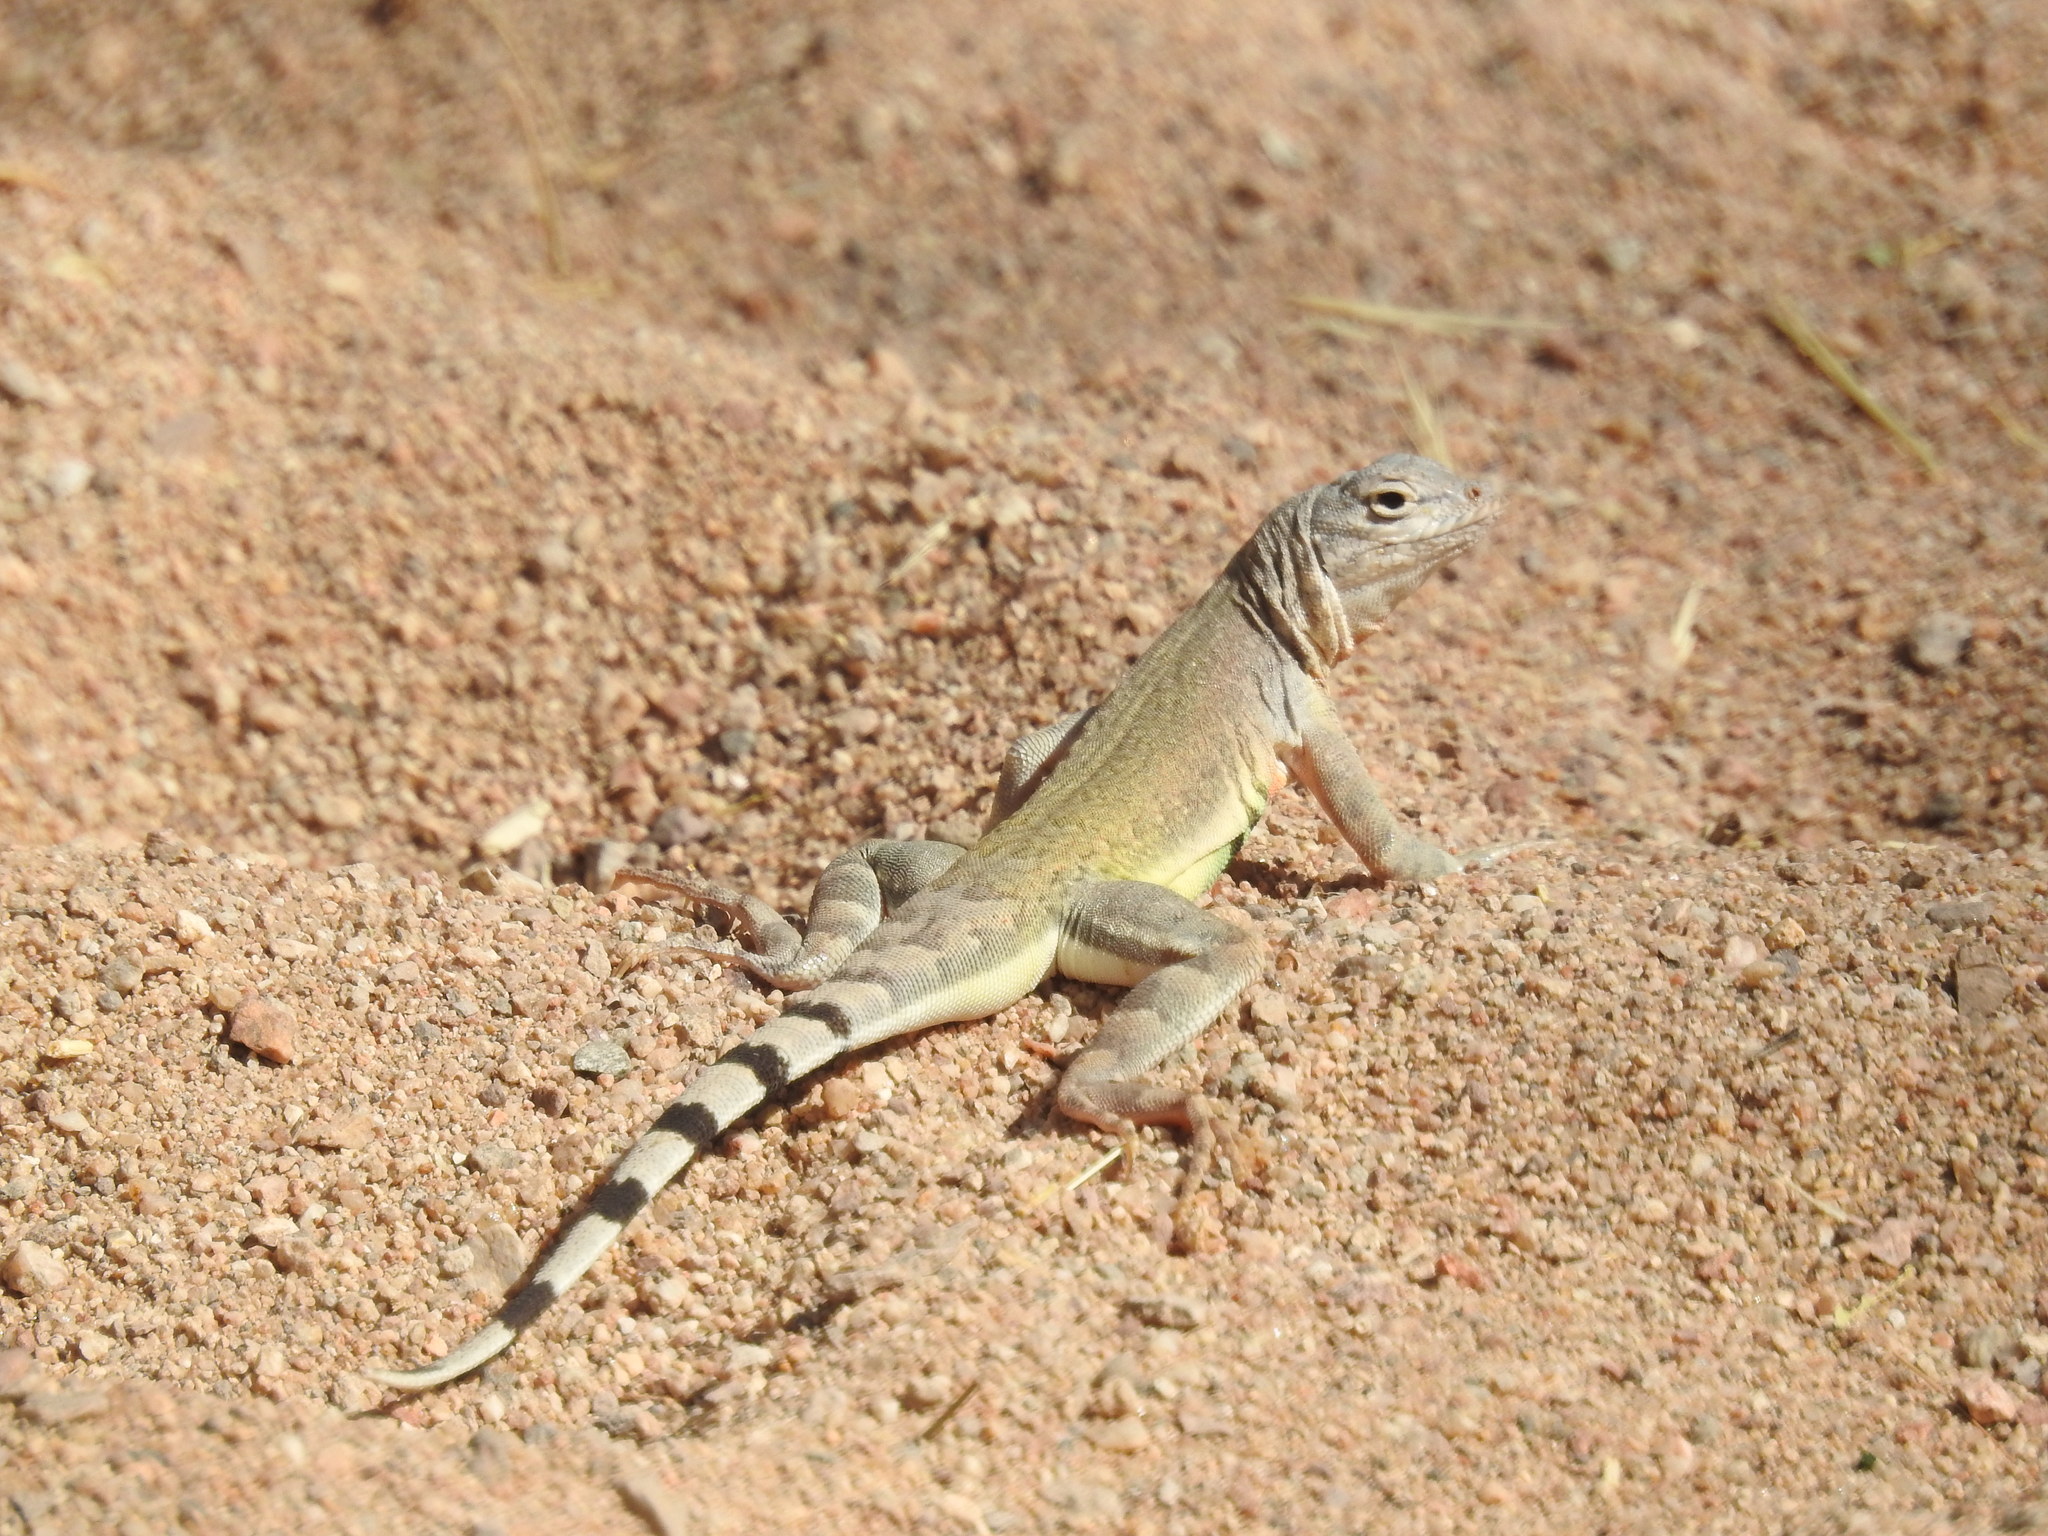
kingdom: Animalia
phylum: Chordata
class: Squamata
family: Phrynosomatidae
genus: Callisaurus
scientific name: Callisaurus draconoides
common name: Zebra-tailed lizard
